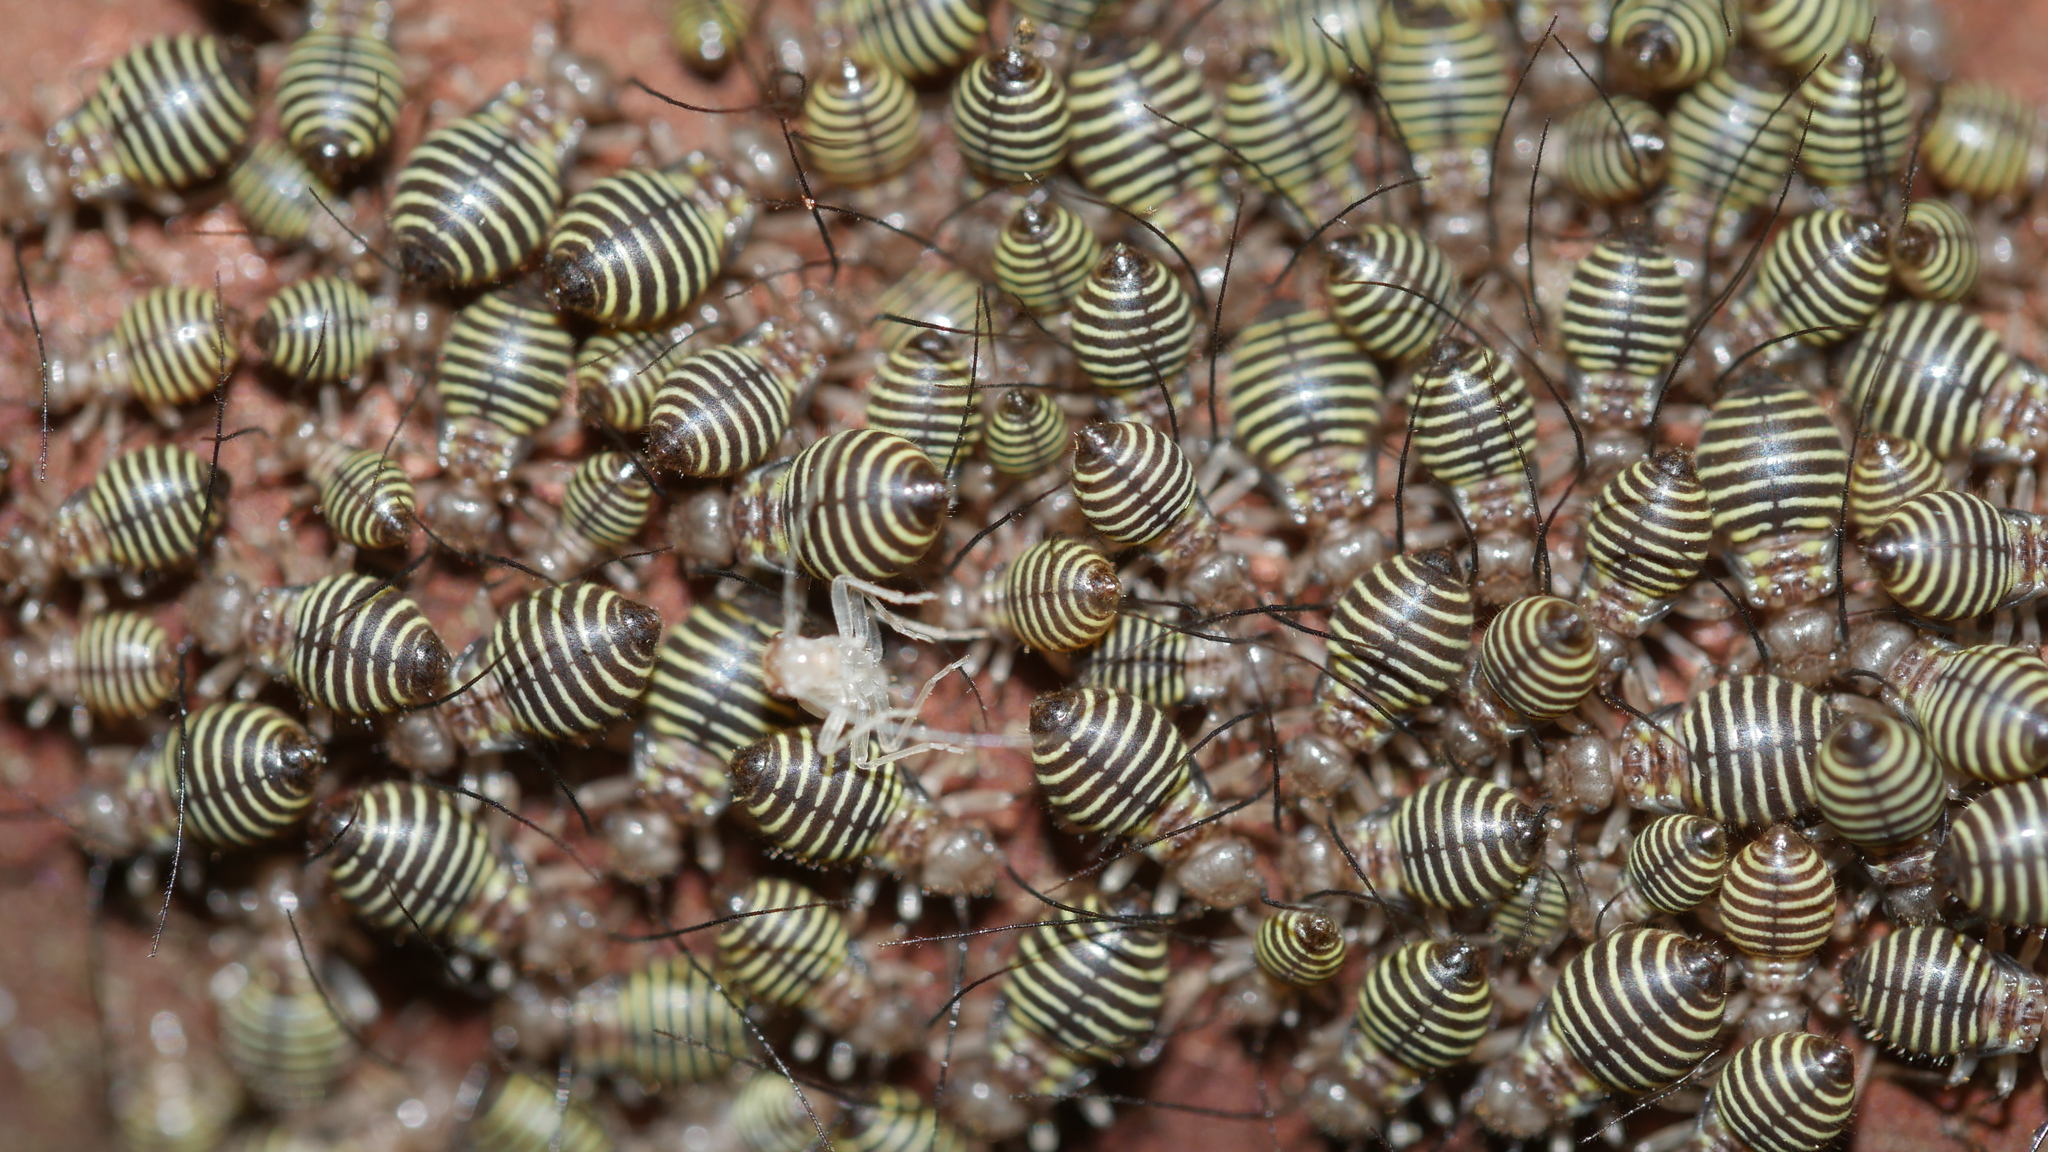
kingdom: Animalia
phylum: Arthropoda
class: Insecta
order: Psocodea
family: Psocidae
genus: Cerastipsocus
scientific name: Cerastipsocus venosus
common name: Tree cattle
